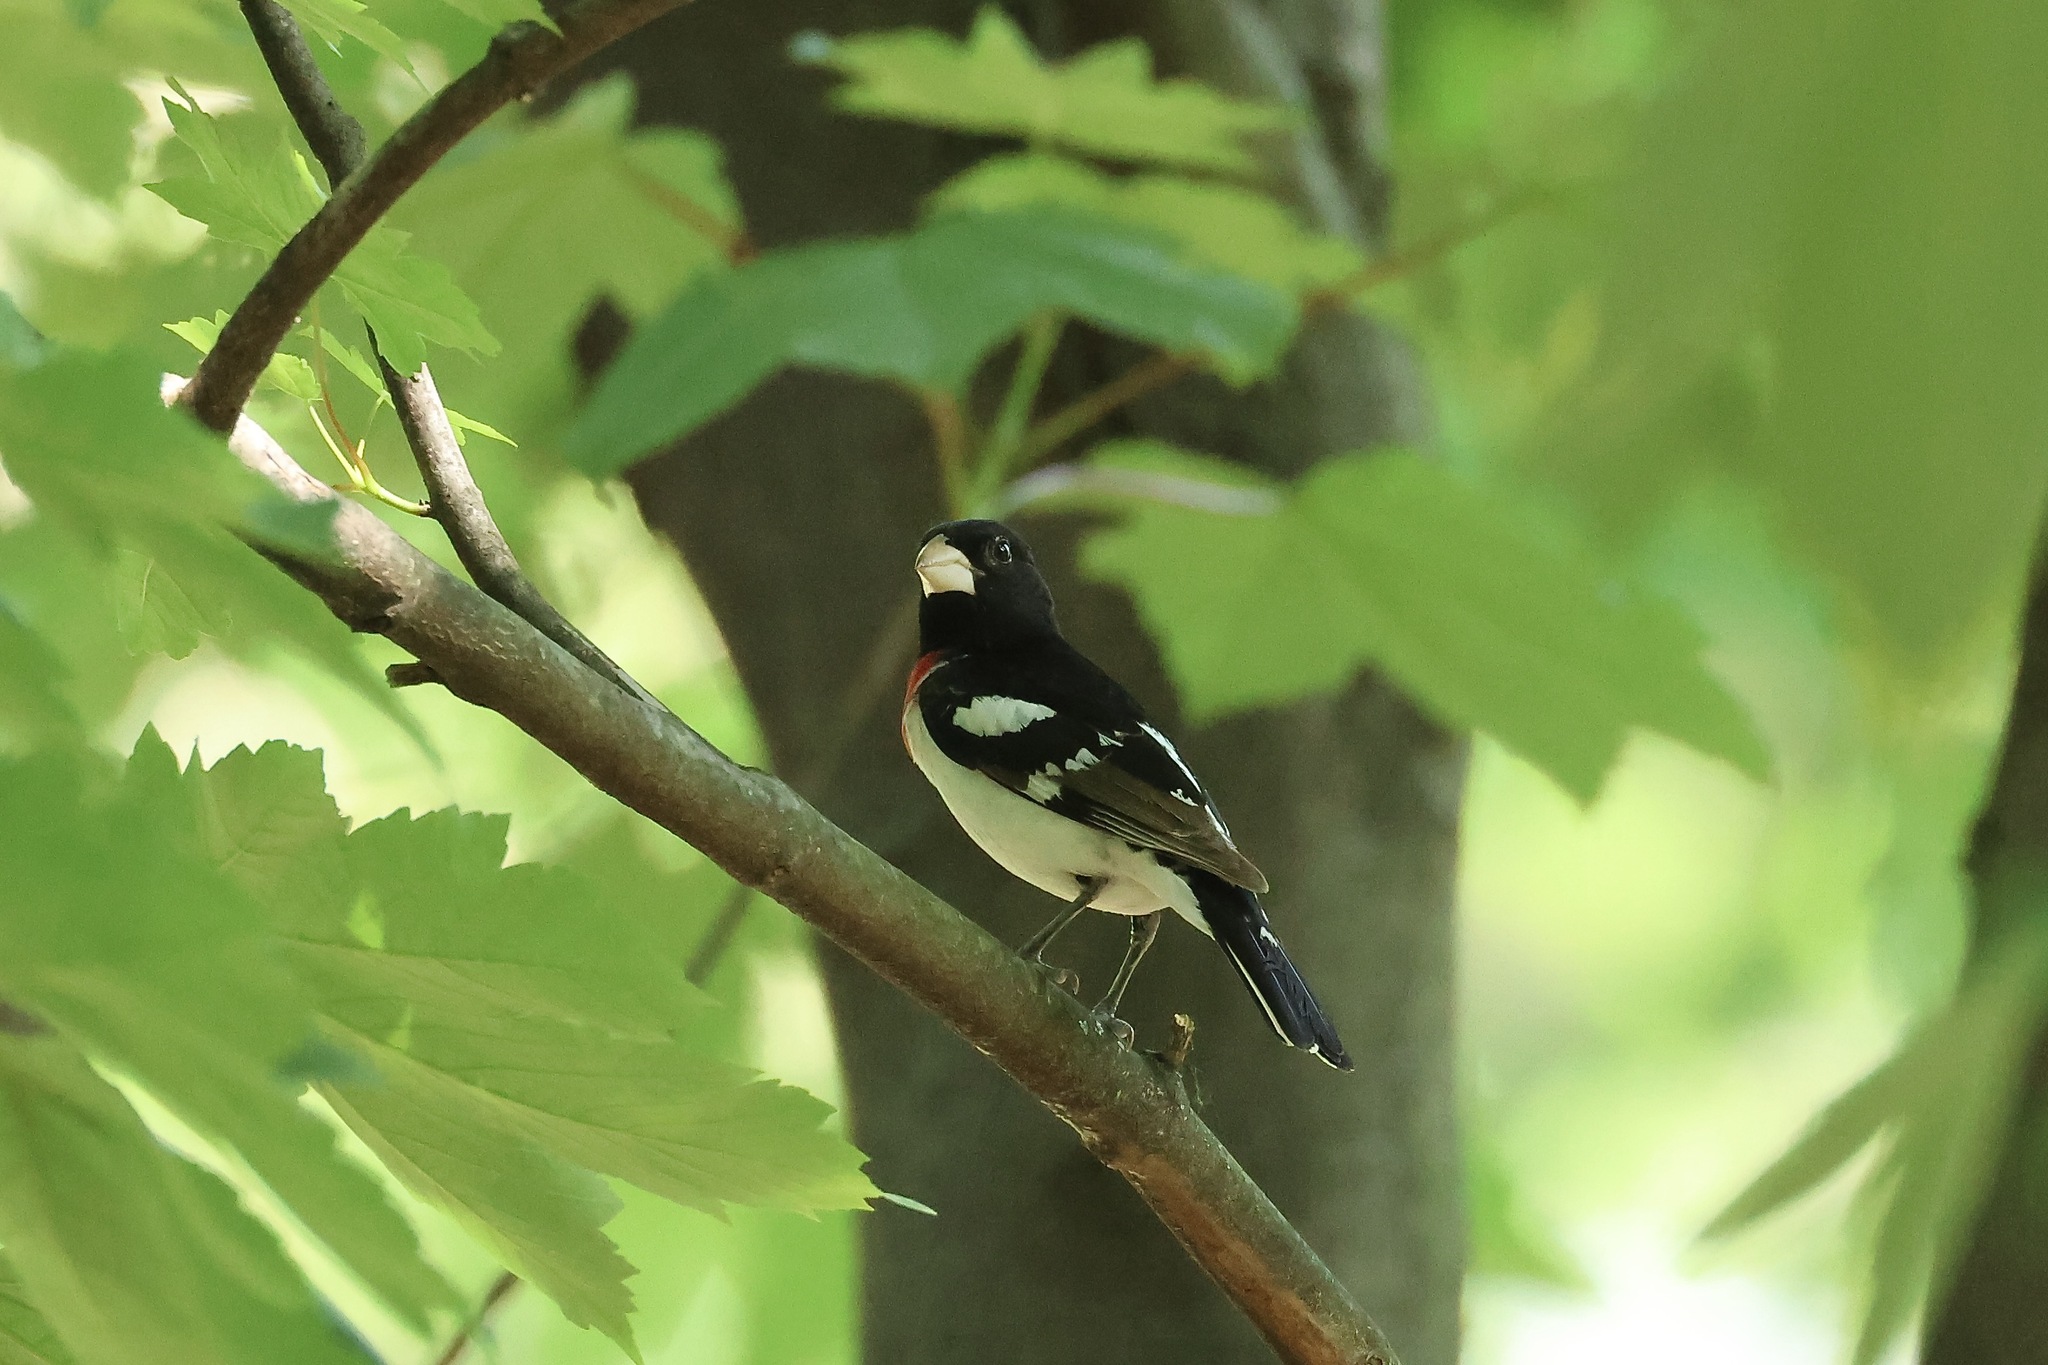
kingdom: Animalia
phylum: Chordata
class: Aves
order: Passeriformes
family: Cardinalidae
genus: Pheucticus
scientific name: Pheucticus ludovicianus
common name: Rose-breasted grosbeak
